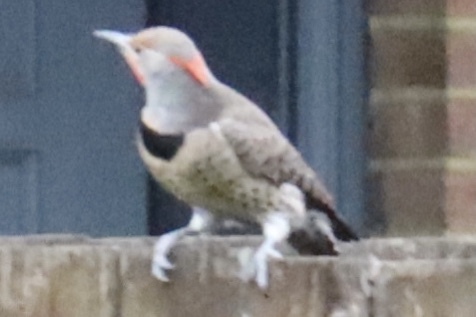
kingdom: Animalia
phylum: Chordata
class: Aves
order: Piciformes
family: Picidae
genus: Colaptes
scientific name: Colaptes
